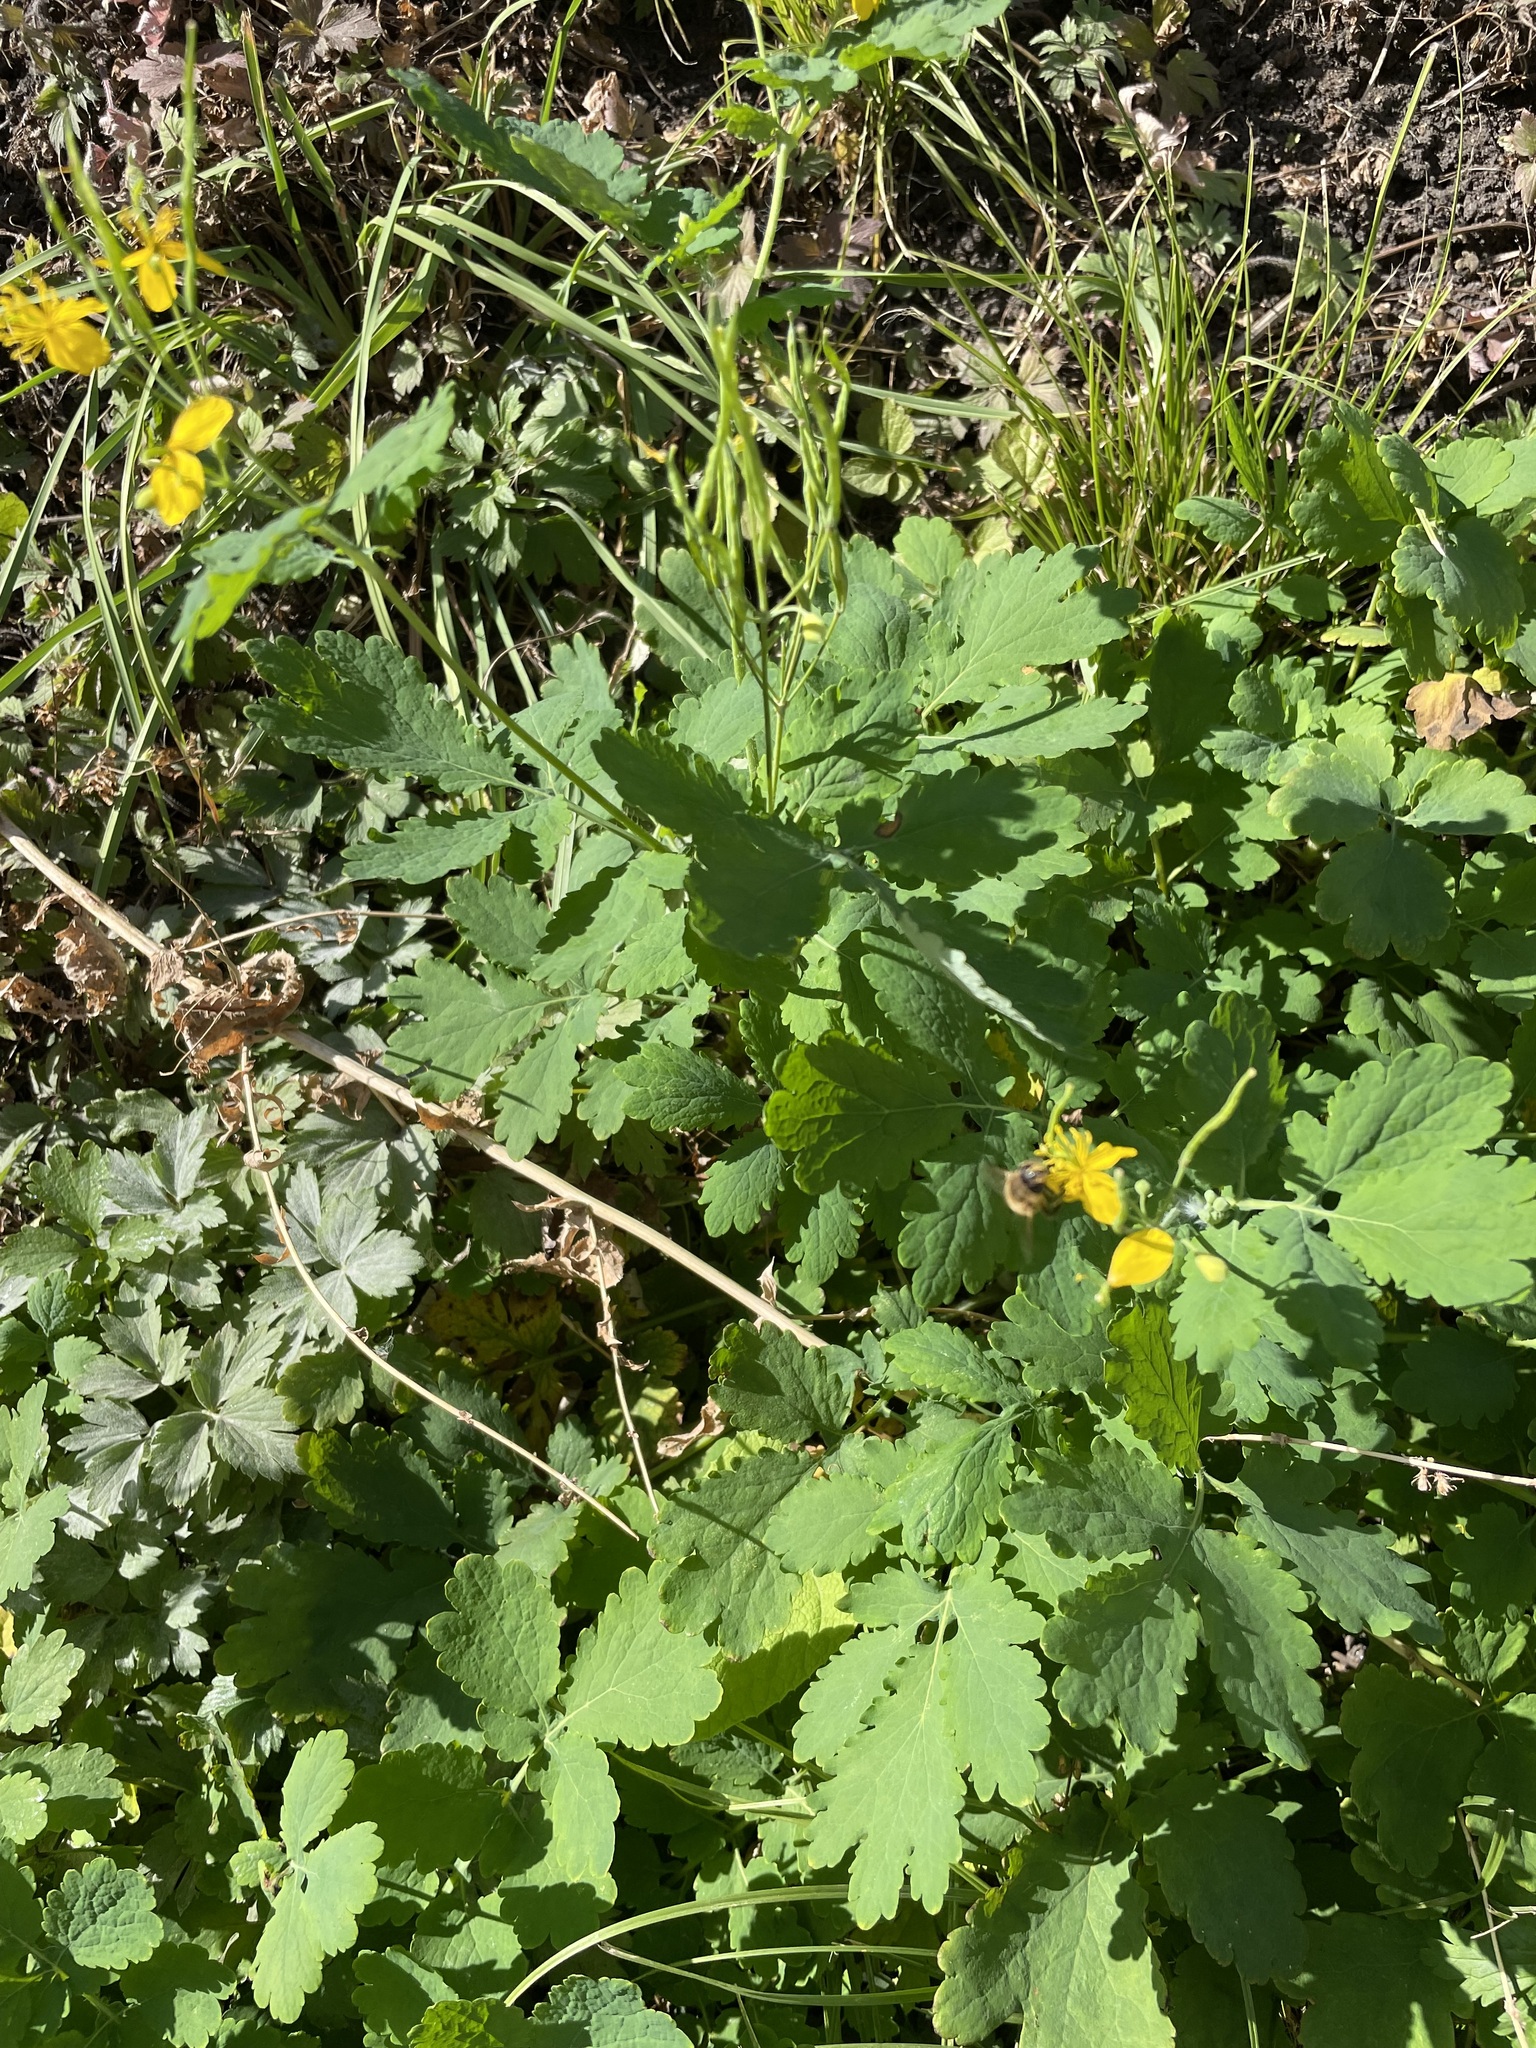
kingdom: Plantae
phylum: Tracheophyta
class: Magnoliopsida
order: Ranunculales
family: Papaveraceae
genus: Chelidonium
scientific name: Chelidonium majus
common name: Greater celandine
